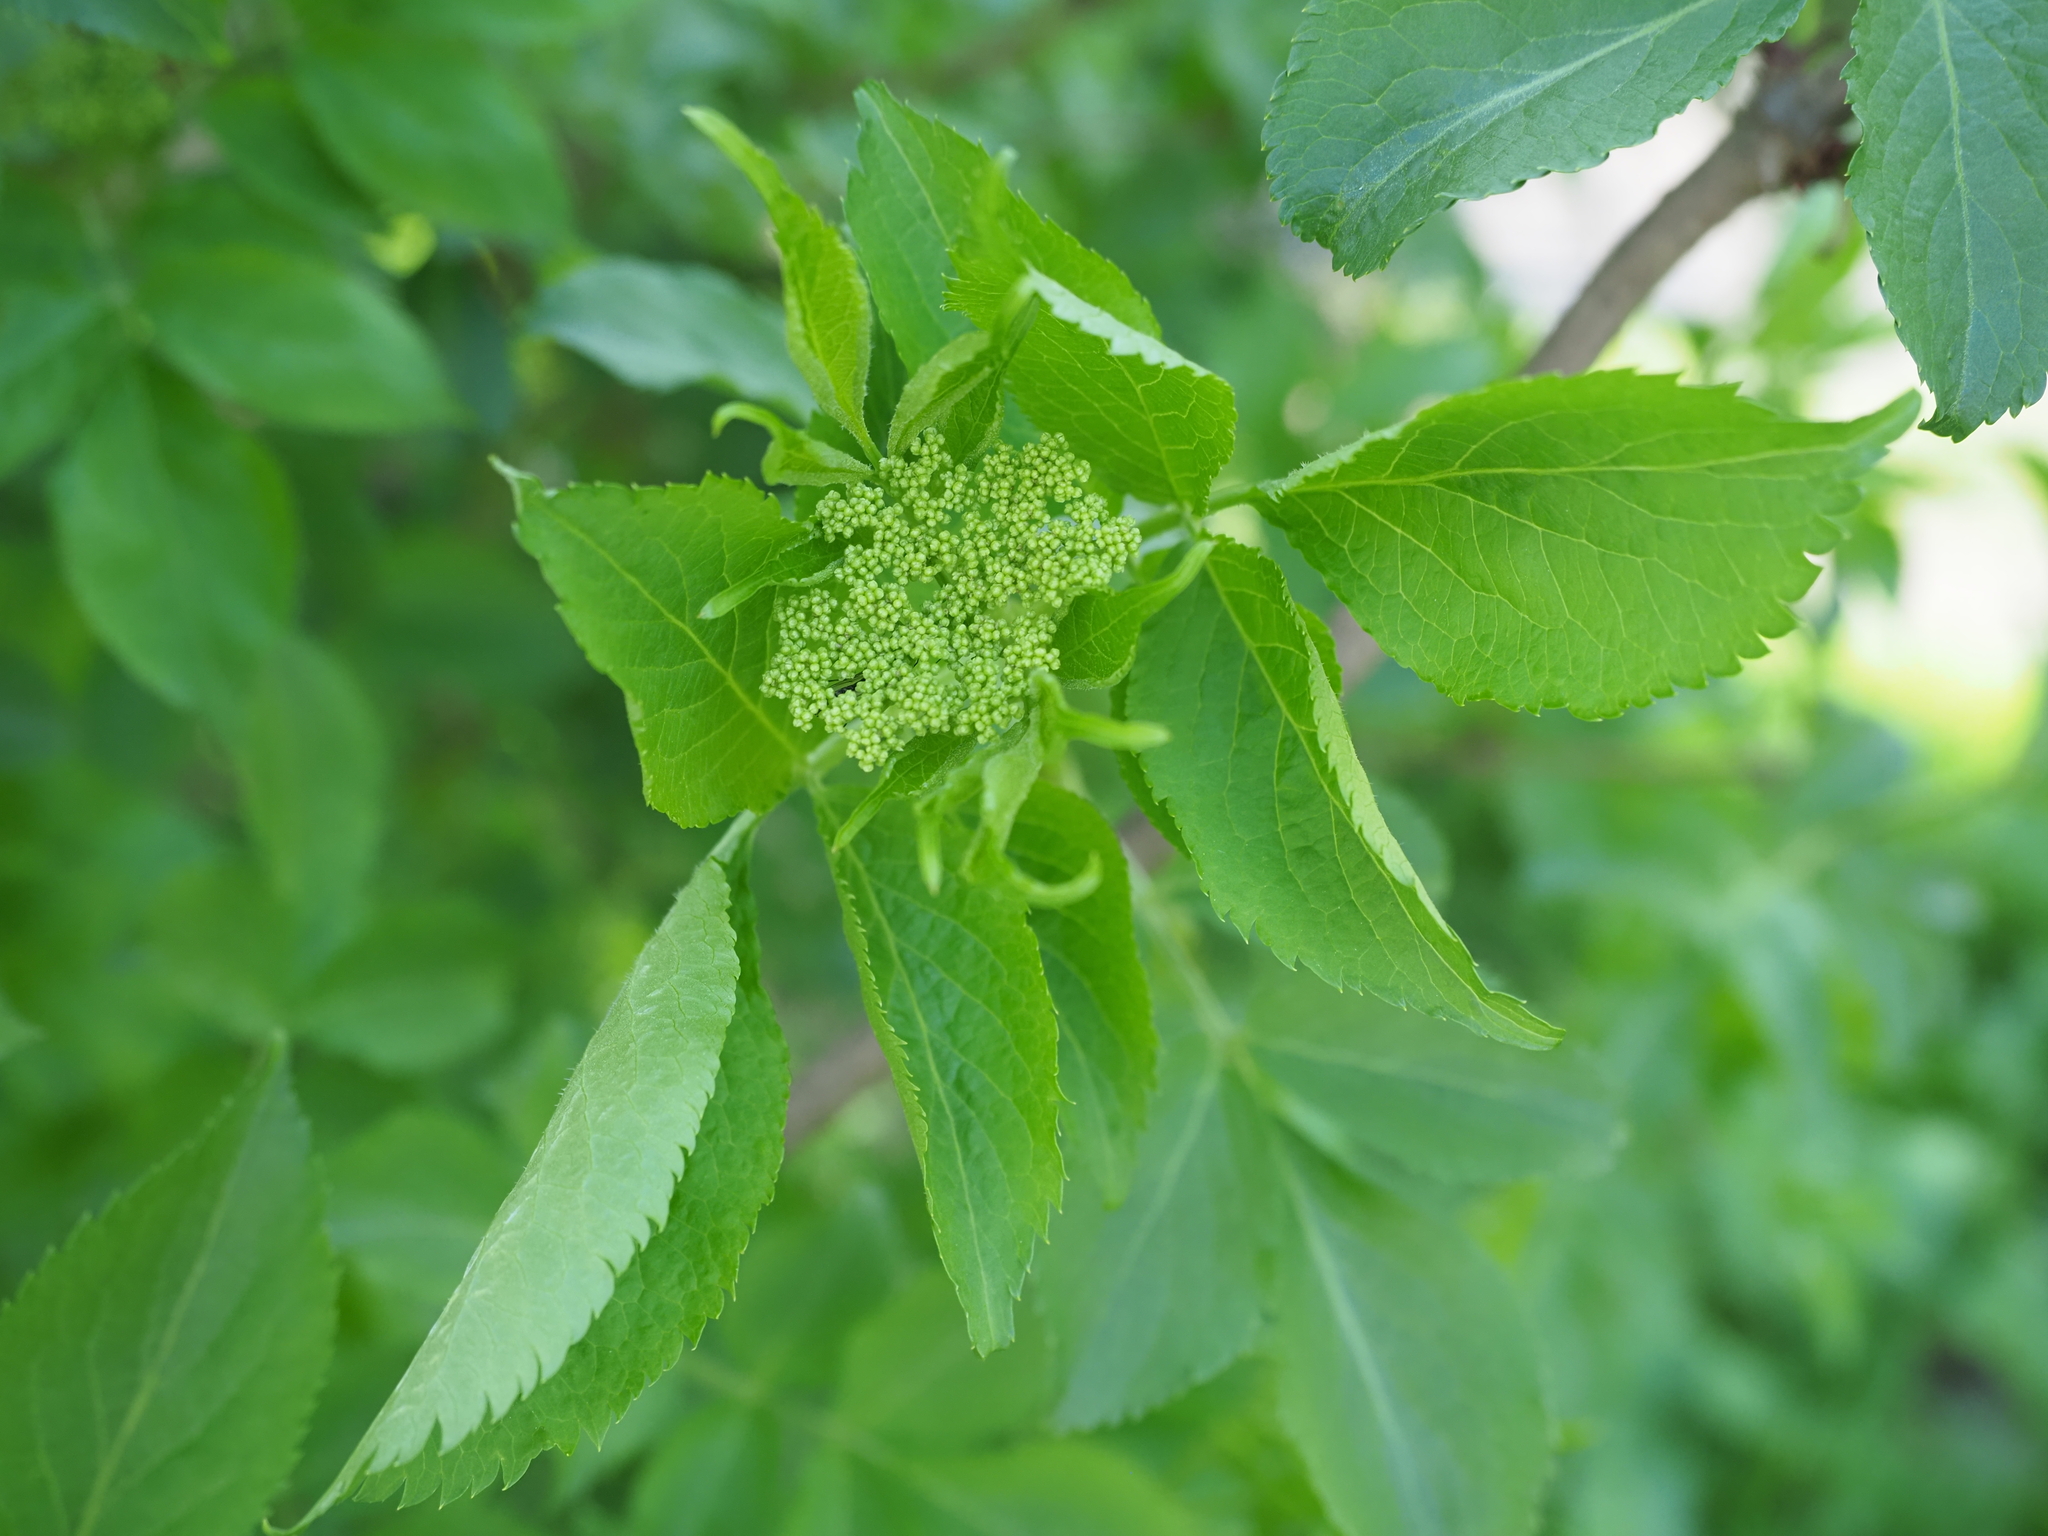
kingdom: Plantae
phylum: Tracheophyta
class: Magnoliopsida
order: Dipsacales
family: Viburnaceae
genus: Sambucus
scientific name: Sambucus nigra
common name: Elder
